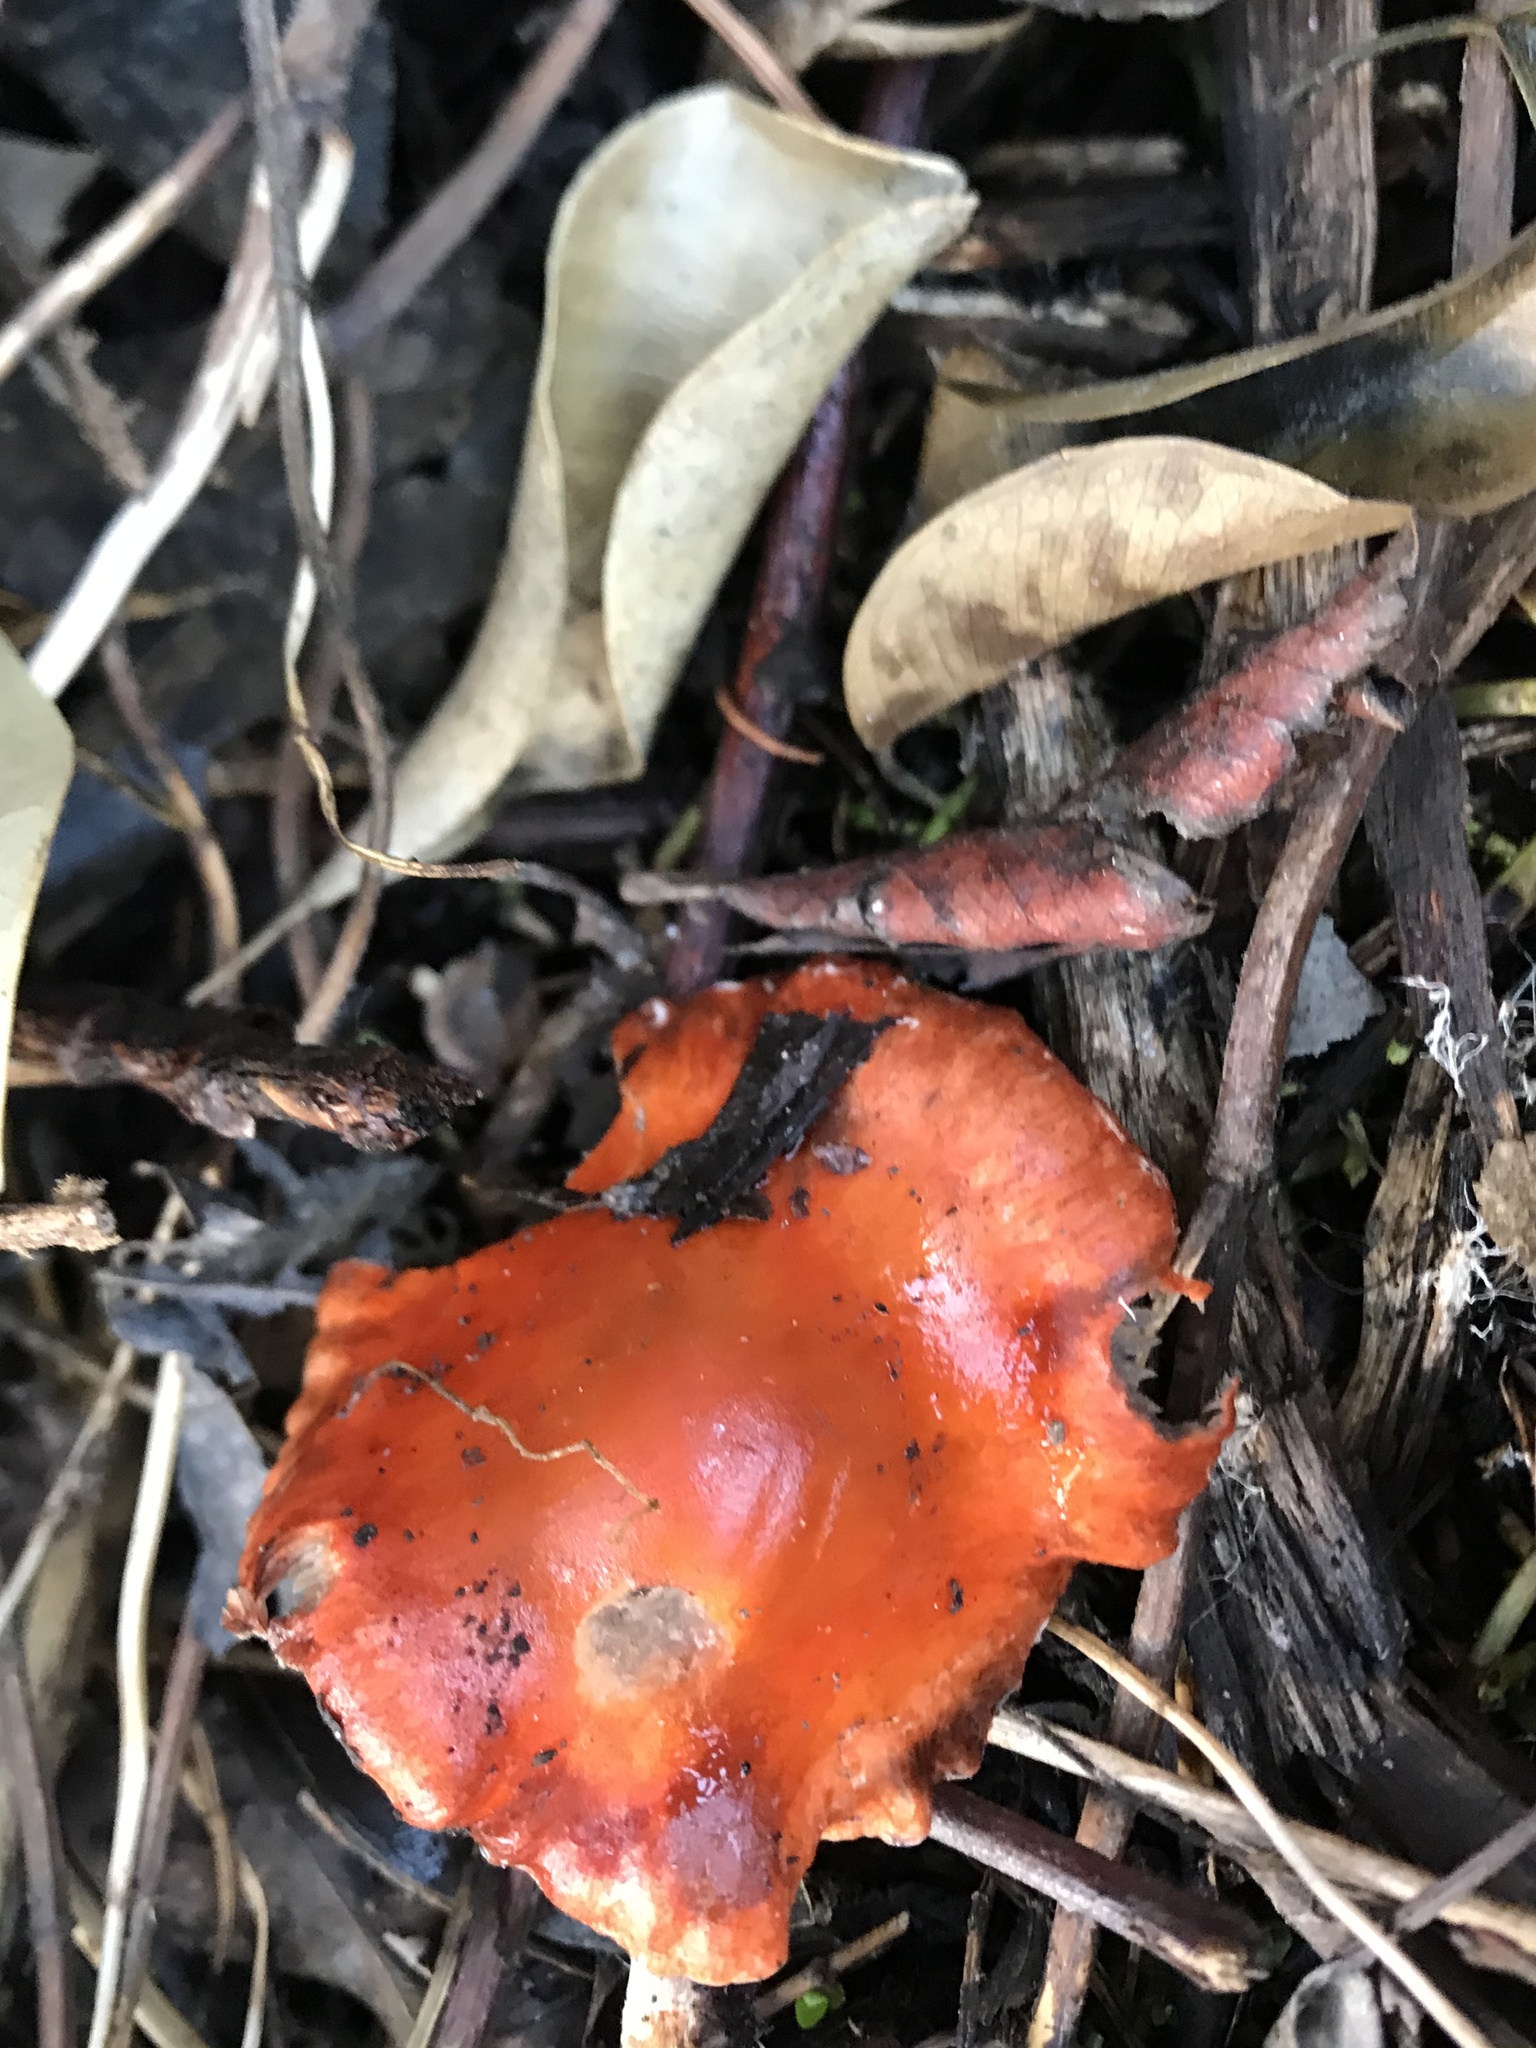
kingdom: Fungi
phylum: Basidiomycota
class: Agaricomycetes
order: Agaricales
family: Strophariaceae
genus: Leratiomyces
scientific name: Leratiomyces ceres
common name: Redlead roundhead
